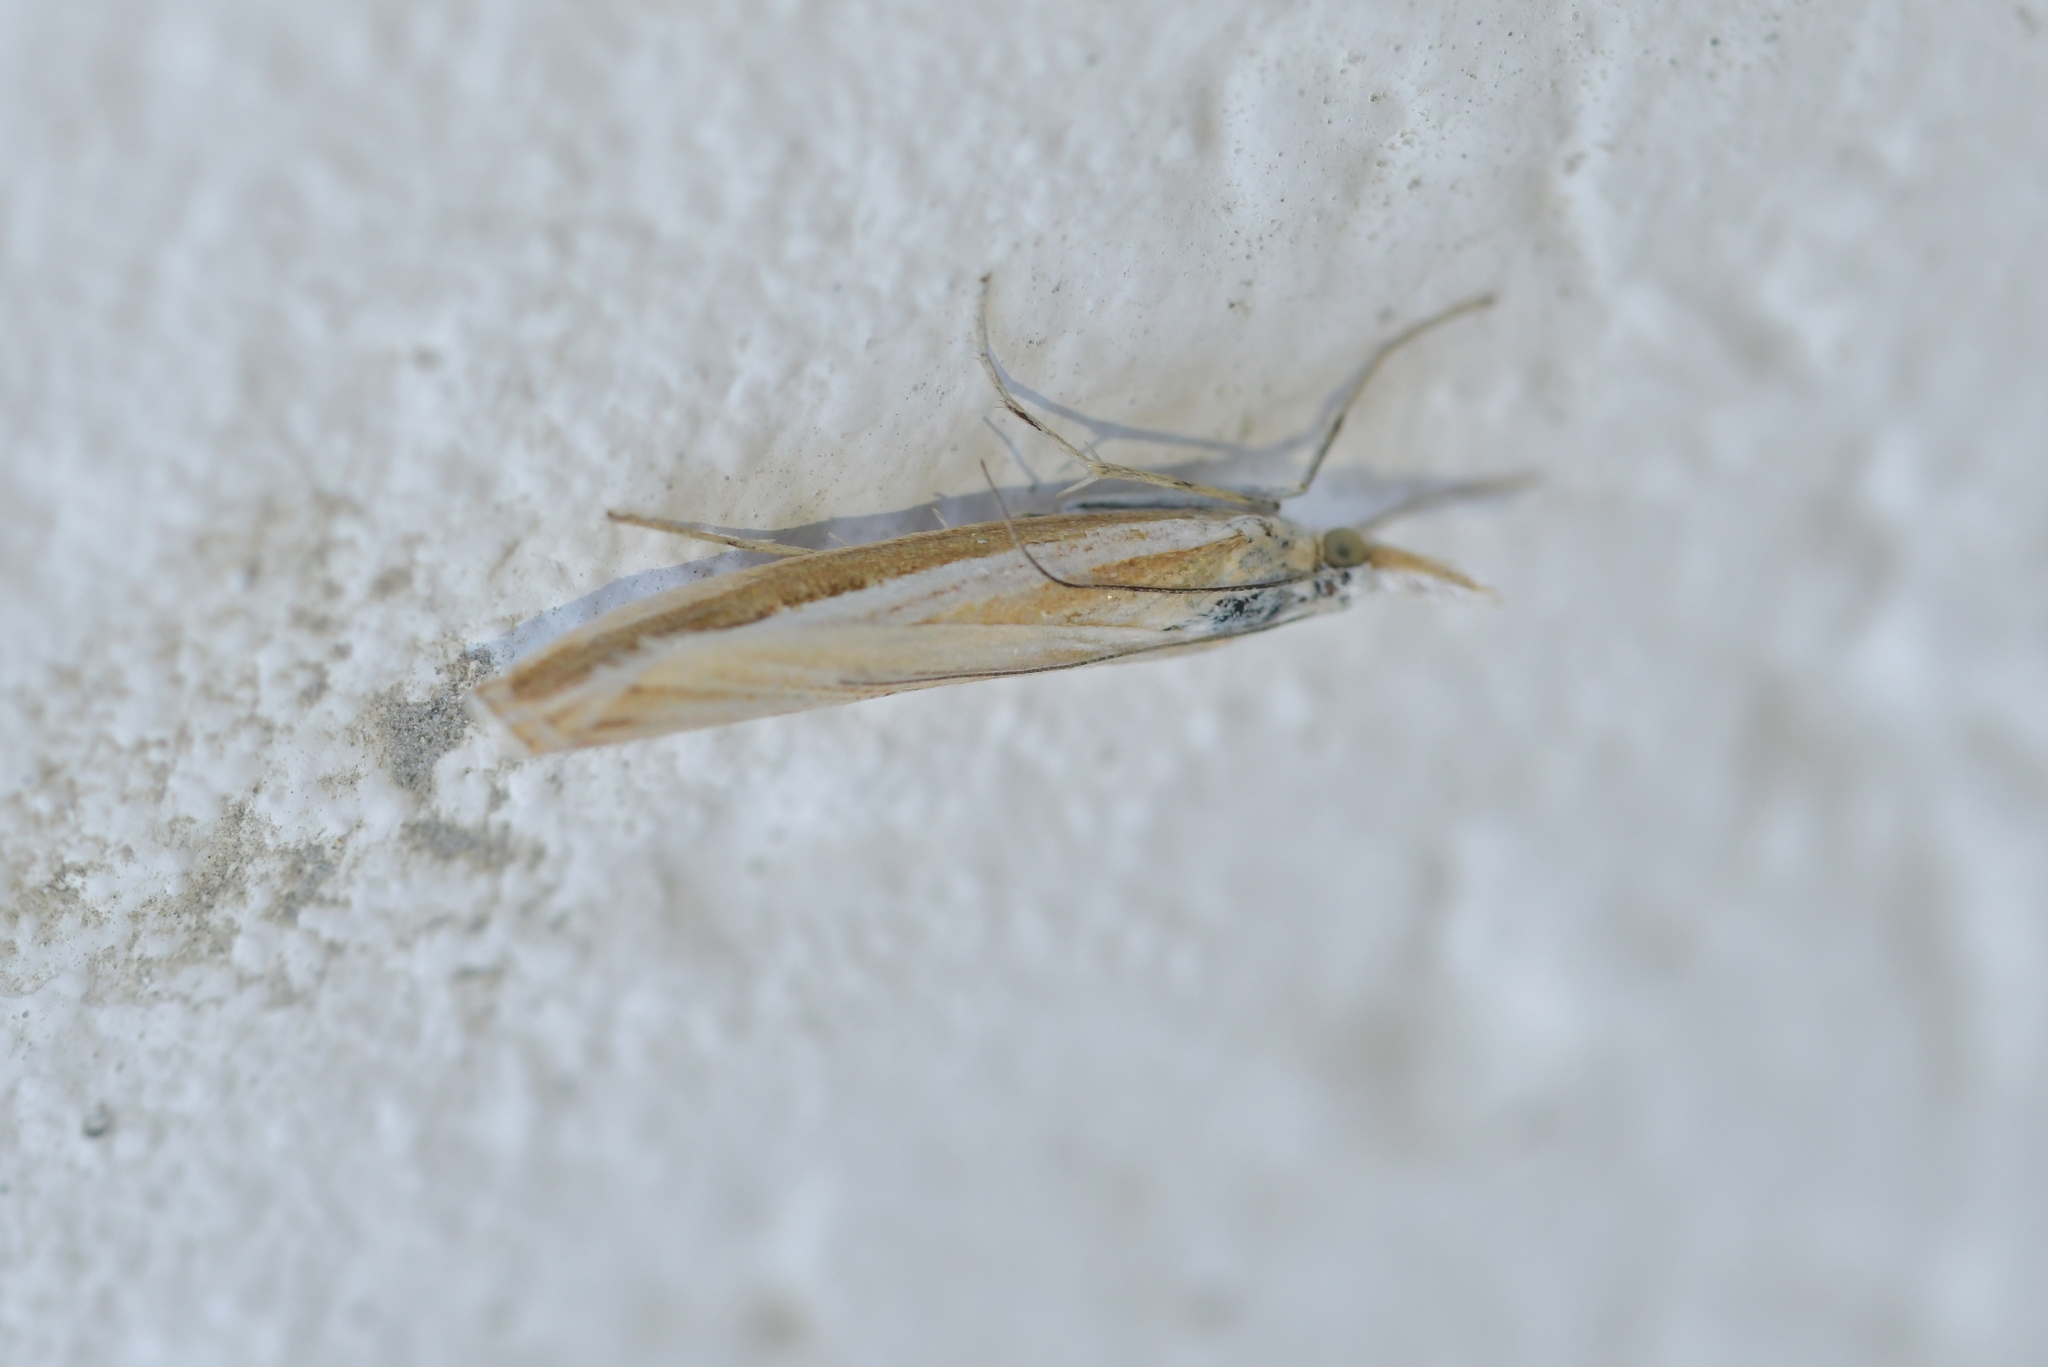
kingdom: Animalia
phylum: Arthropoda
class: Insecta
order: Lepidoptera
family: Crambidae
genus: Orocrambus
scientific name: Orocrambus vittellus
